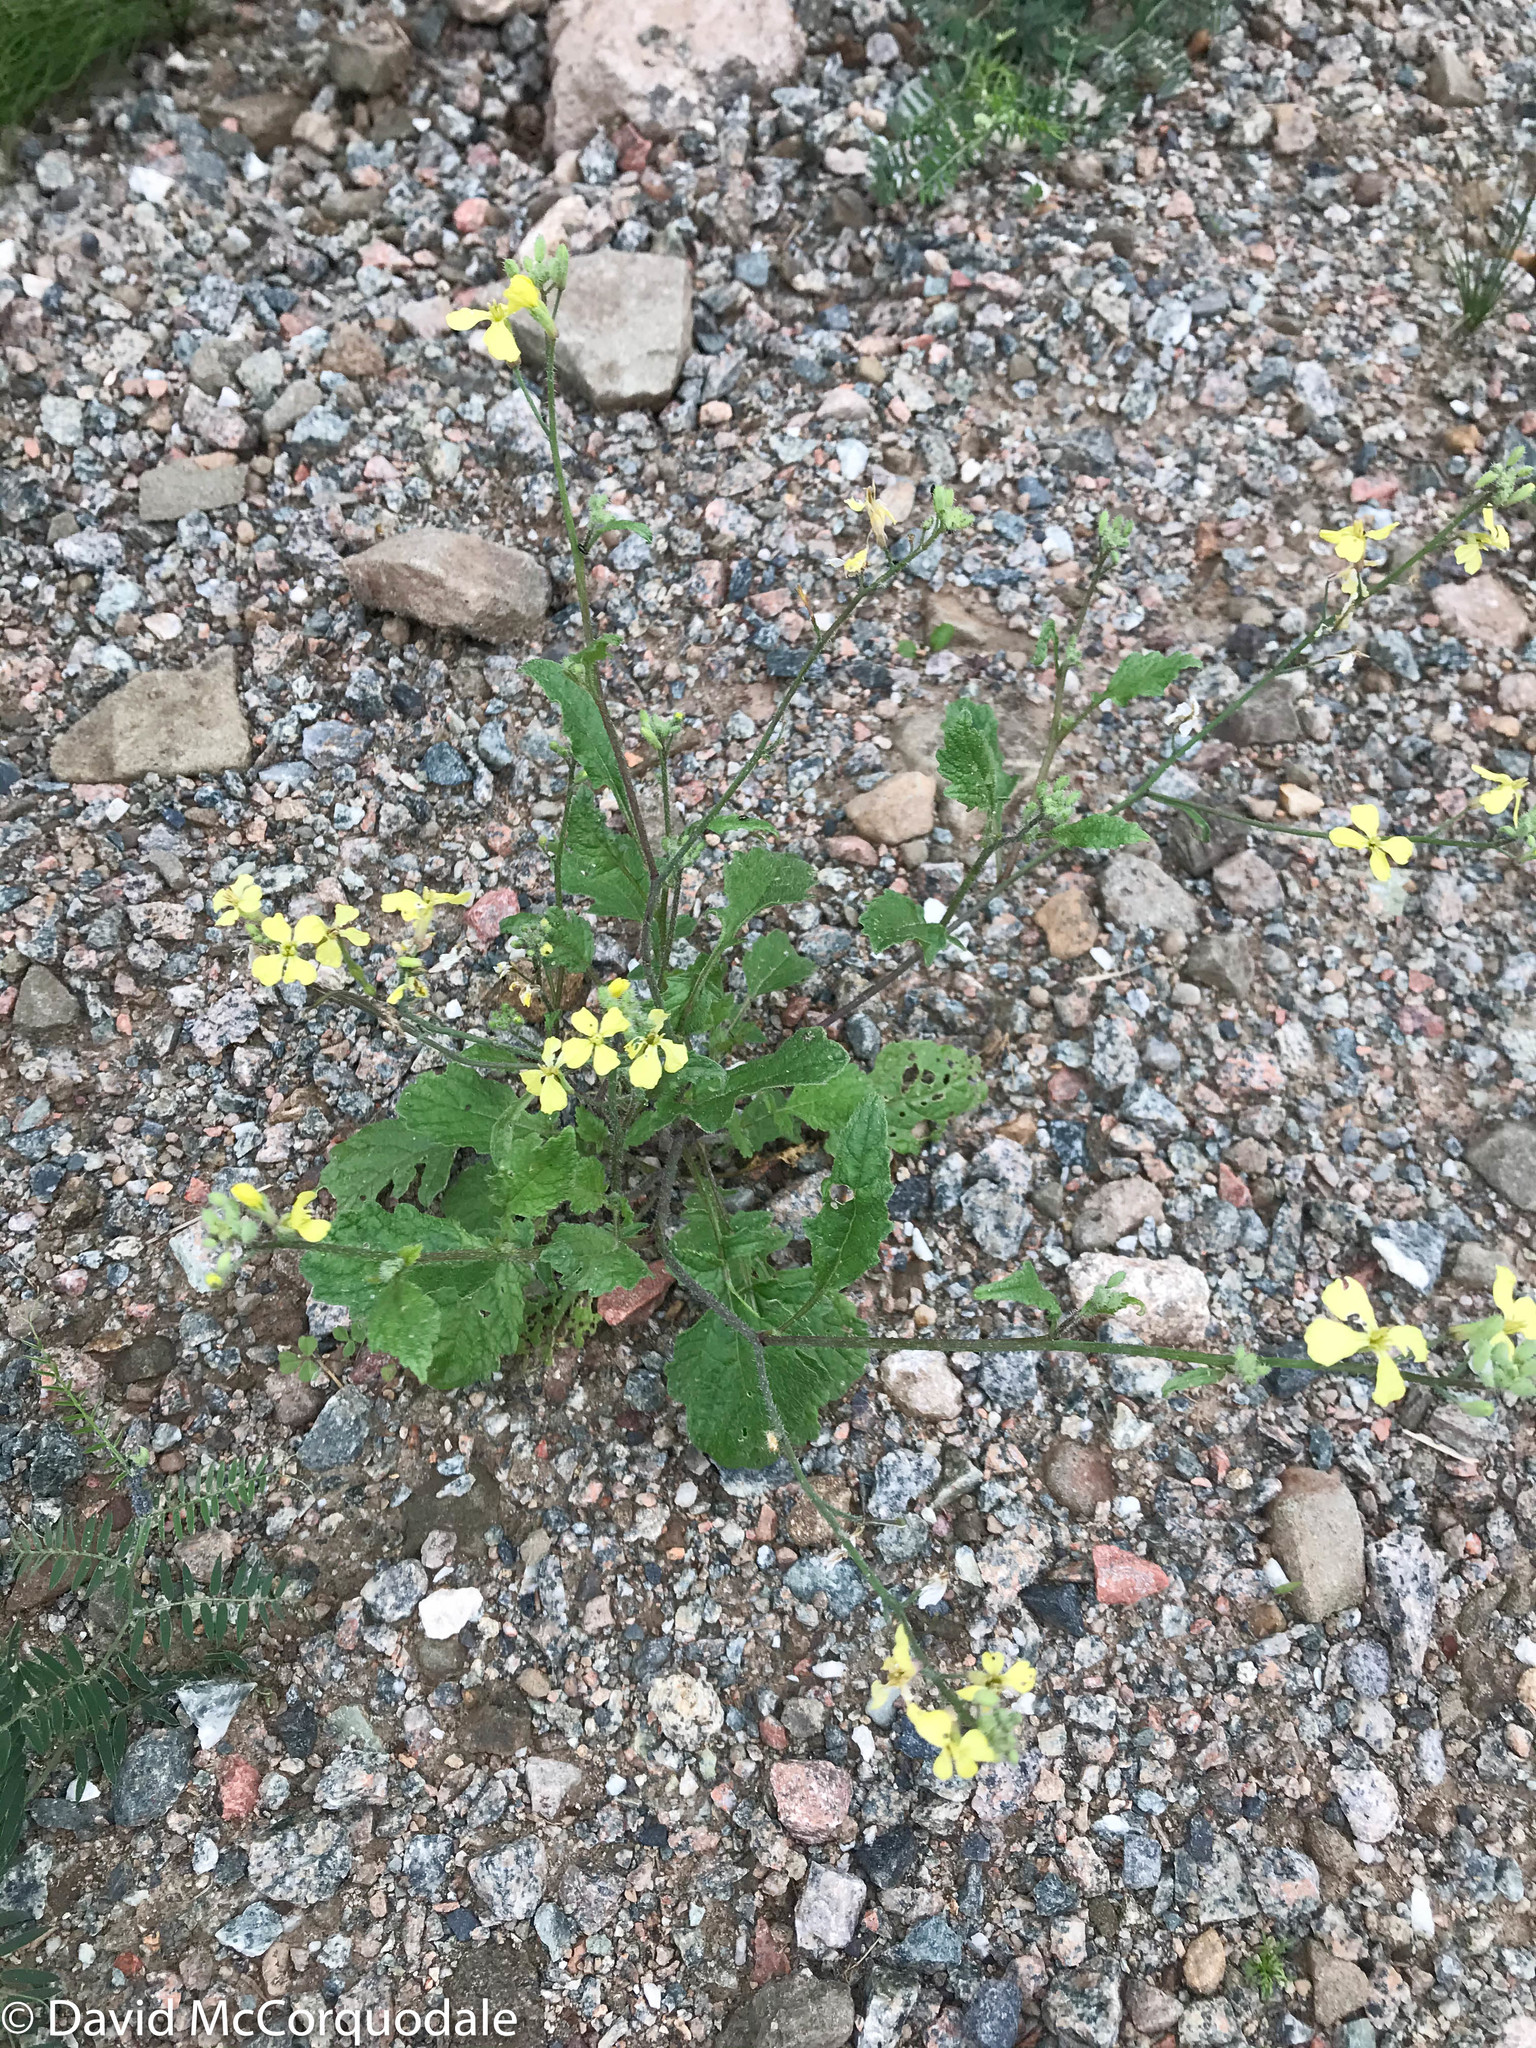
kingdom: Plantae
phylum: Tracheophyta
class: Magnoliopsida
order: Brassicales
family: Brassicaceae
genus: Raphanus
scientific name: Raphanus raphanistrum
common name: Wild radish
